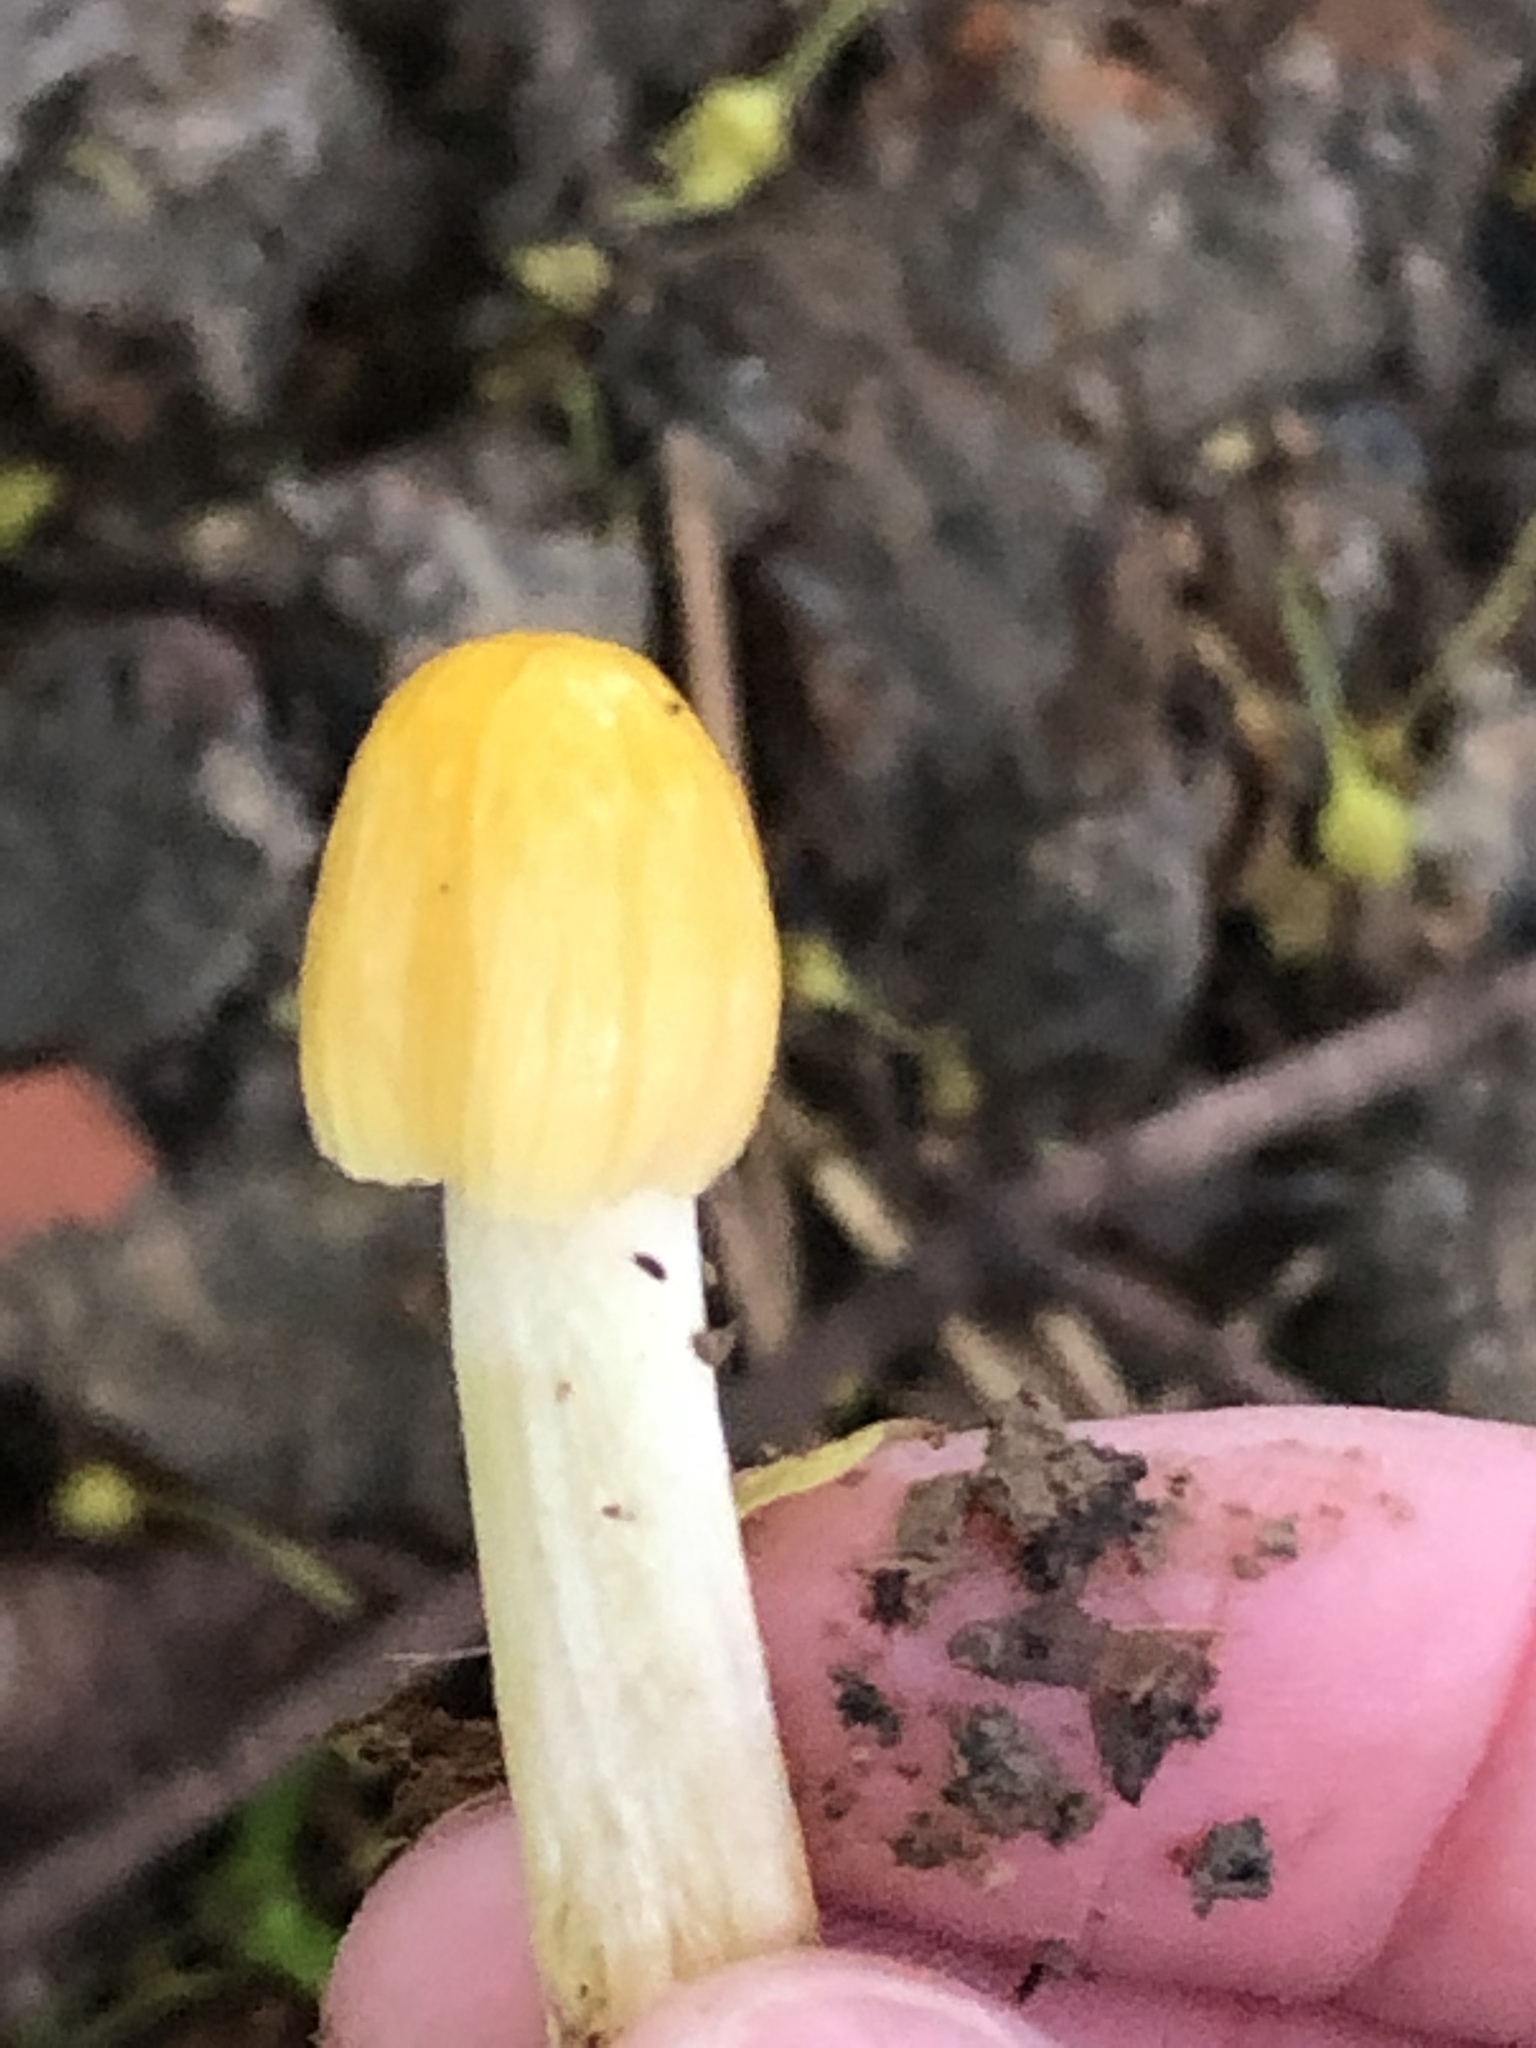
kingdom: Fungi
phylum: Basidiomycota
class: Agaricomycetes
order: Agaricales
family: Bolbitiaceae
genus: Bolbitius
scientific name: Bolbitius titubans
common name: Yellow fieldcap
